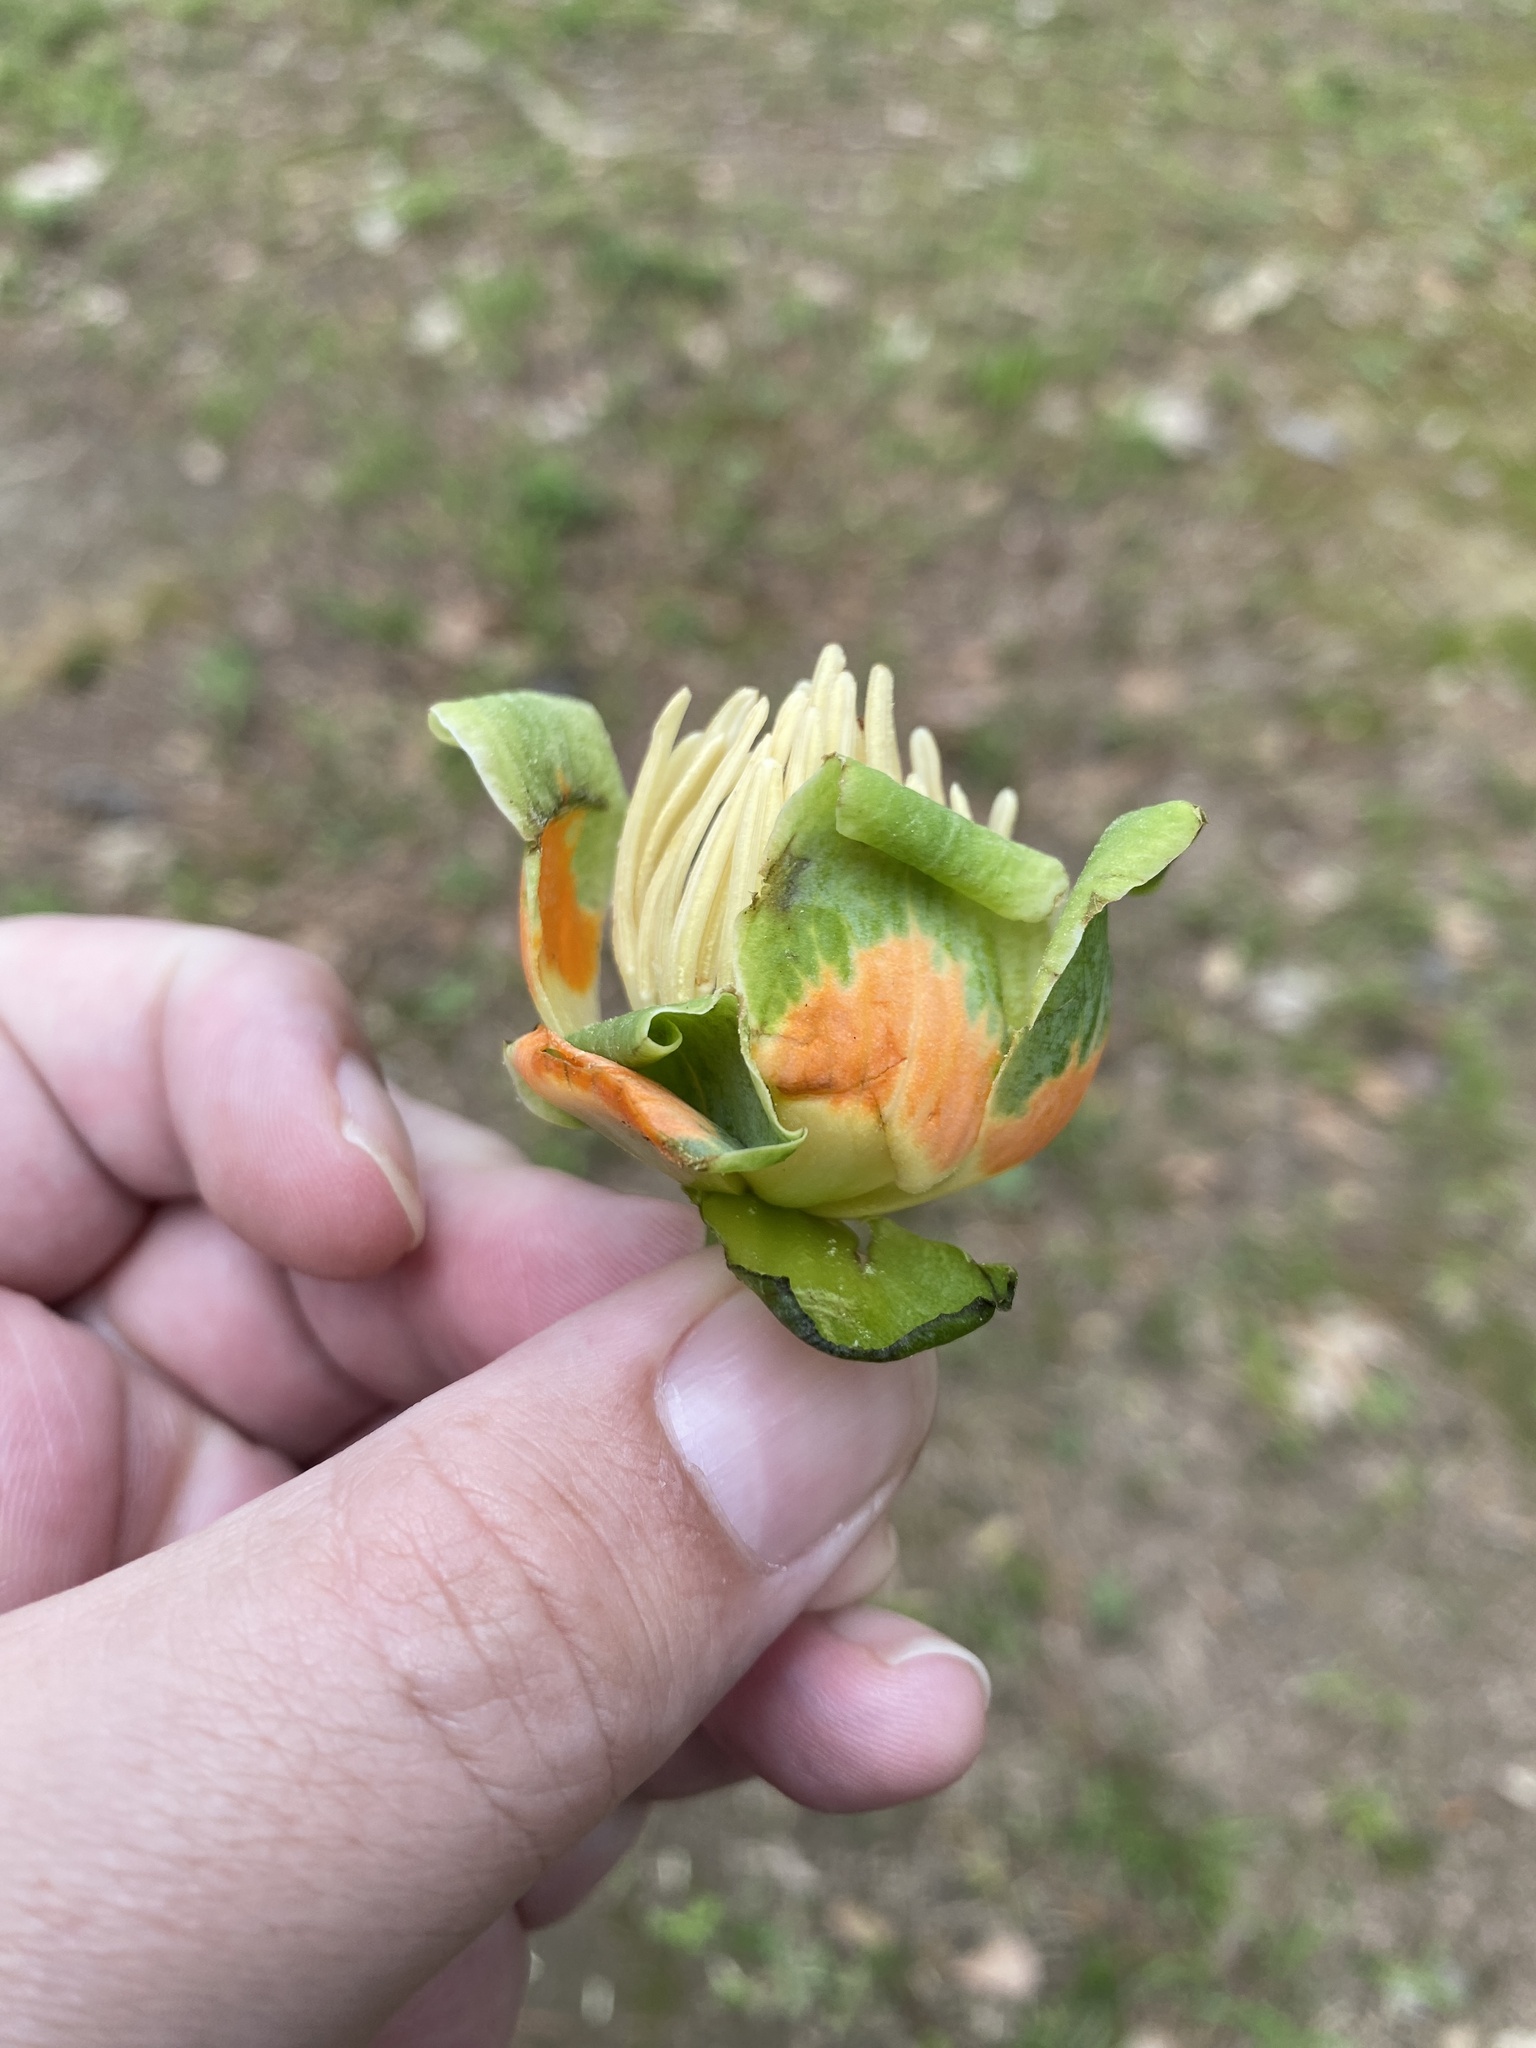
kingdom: Plantae
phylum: Tracheophyta
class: Magnoliopsida
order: Magnoliales
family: Magnoliaceae
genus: Liriodendron
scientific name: Liriodendron tulipifera
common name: Tulip tree
